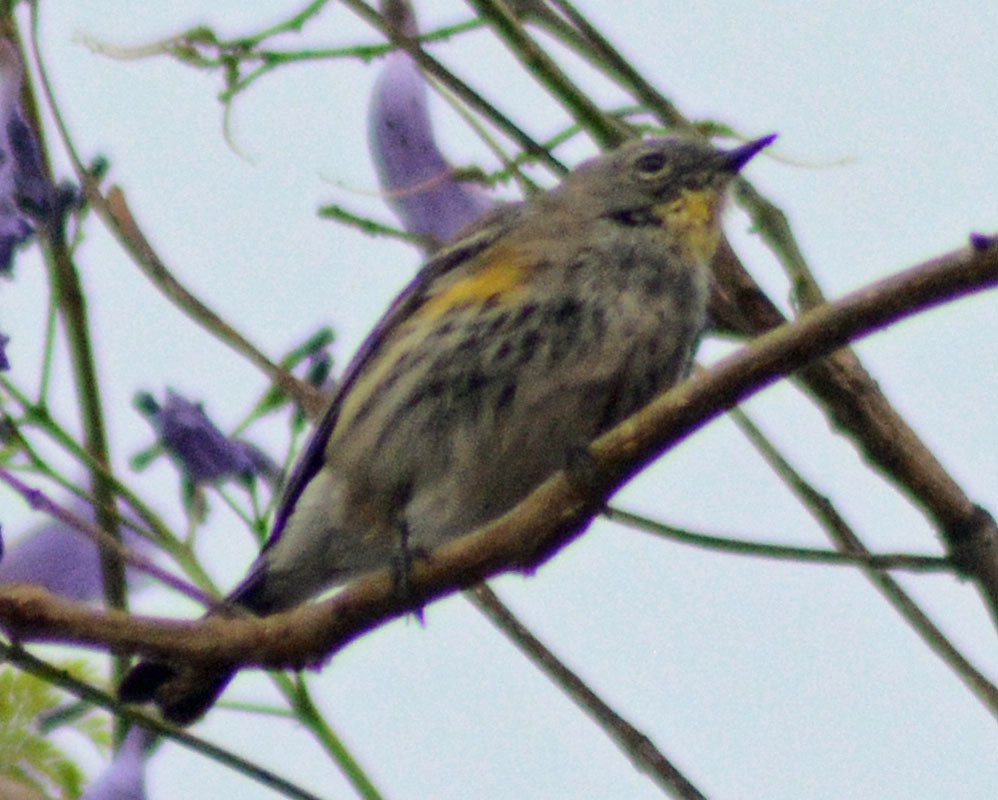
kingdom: Animalia
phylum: Chordata
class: Aves
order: Passeriformes
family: Parulidae
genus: Setophaga
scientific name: Setophaga auduboni
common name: Audubon's warbler
